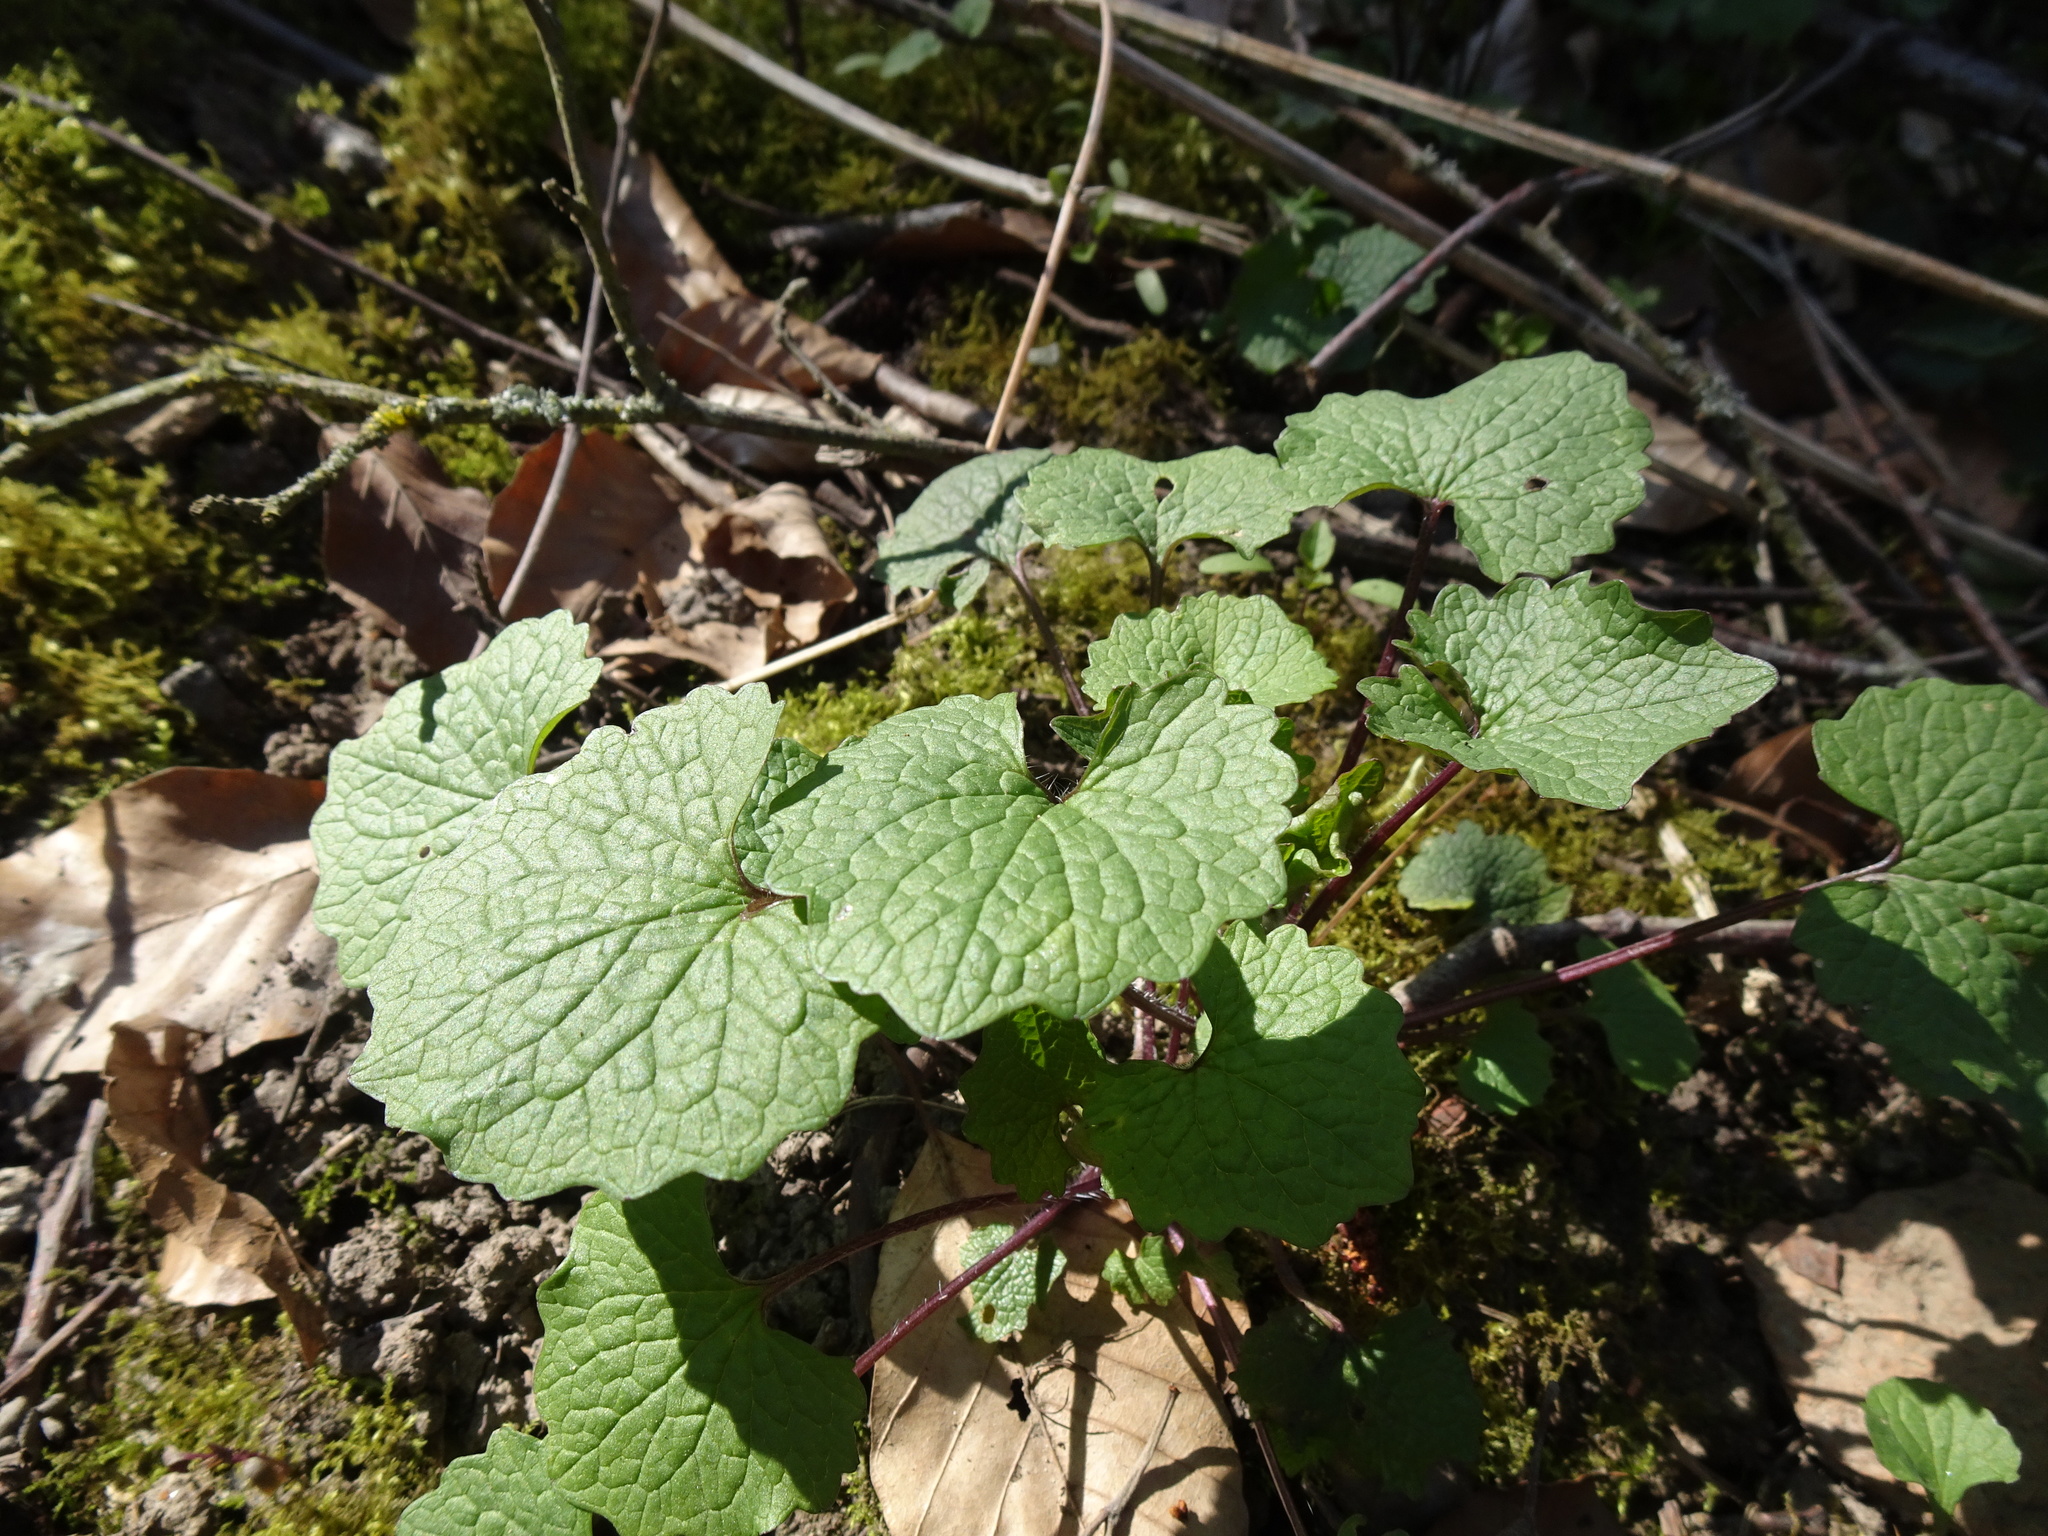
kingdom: Plantae
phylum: Tracheophyta
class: Magnoliopsida
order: Brassicales
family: Brassicaceae
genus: Alliaria
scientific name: Alliaria petiolata
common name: Garlic mustard
